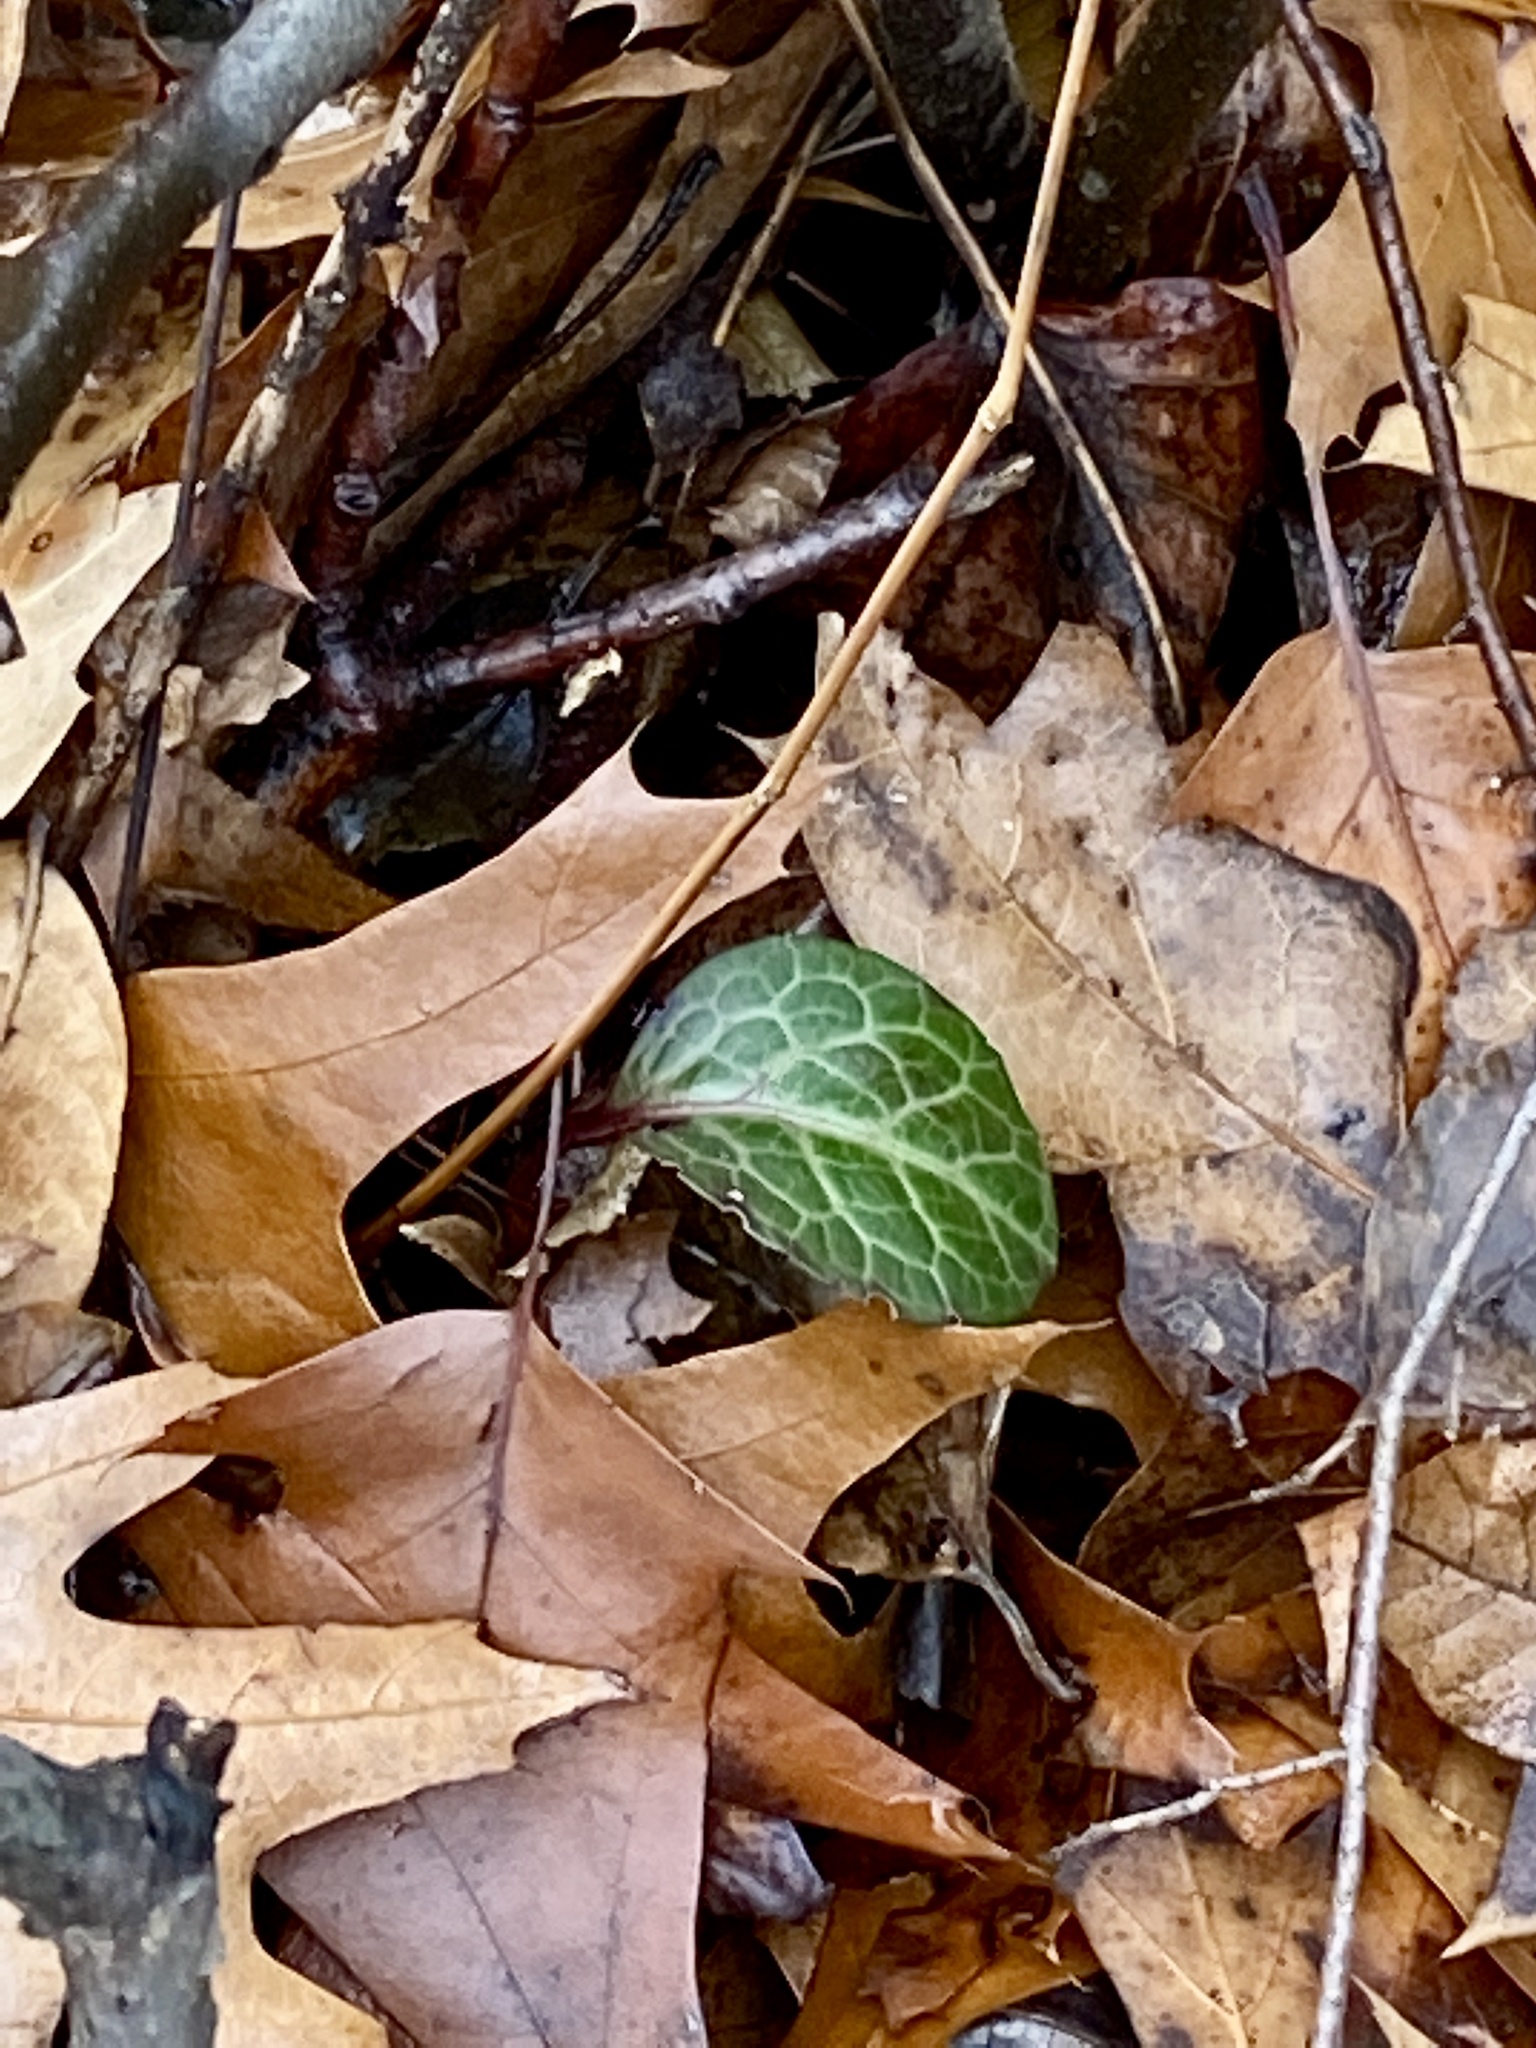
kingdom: Plantae
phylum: Tracheophyta
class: Magnoliopsida
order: Ericales
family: Ericaceae
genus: Pyrola
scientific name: Pyrola americana
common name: American wintergreen
